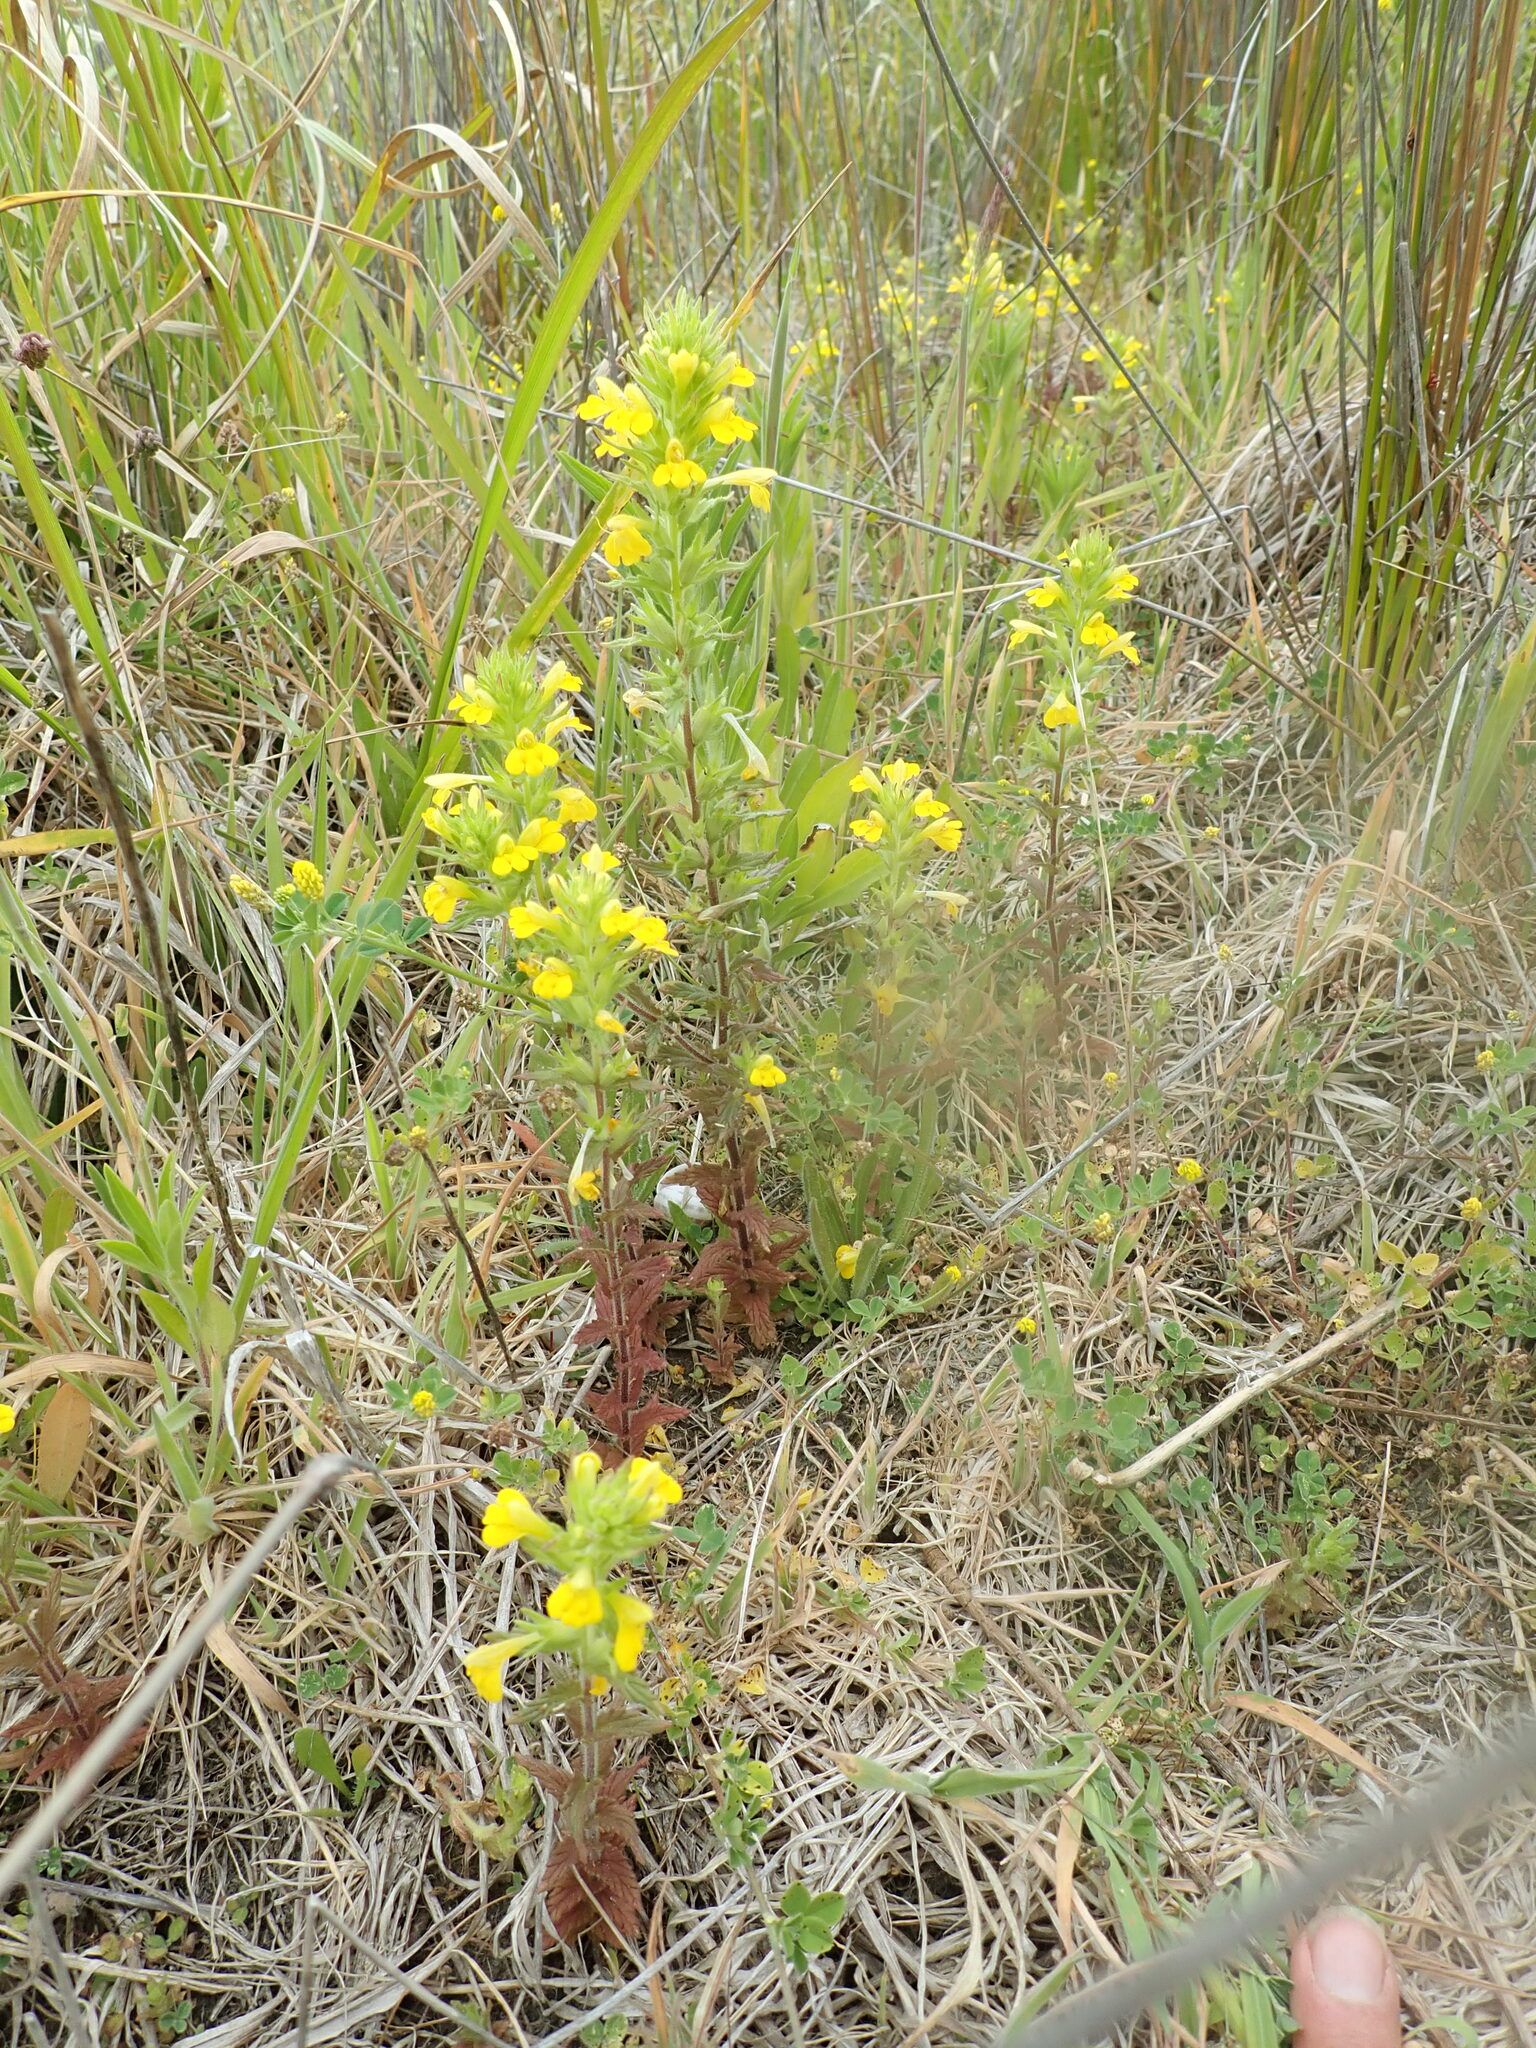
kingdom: Plantae
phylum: Tracheophyta
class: Magnoliopsida
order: Lamiales
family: Orobanchaceae
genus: Bellardia
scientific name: Bellardia viscosa
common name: Sticky parentucellia
